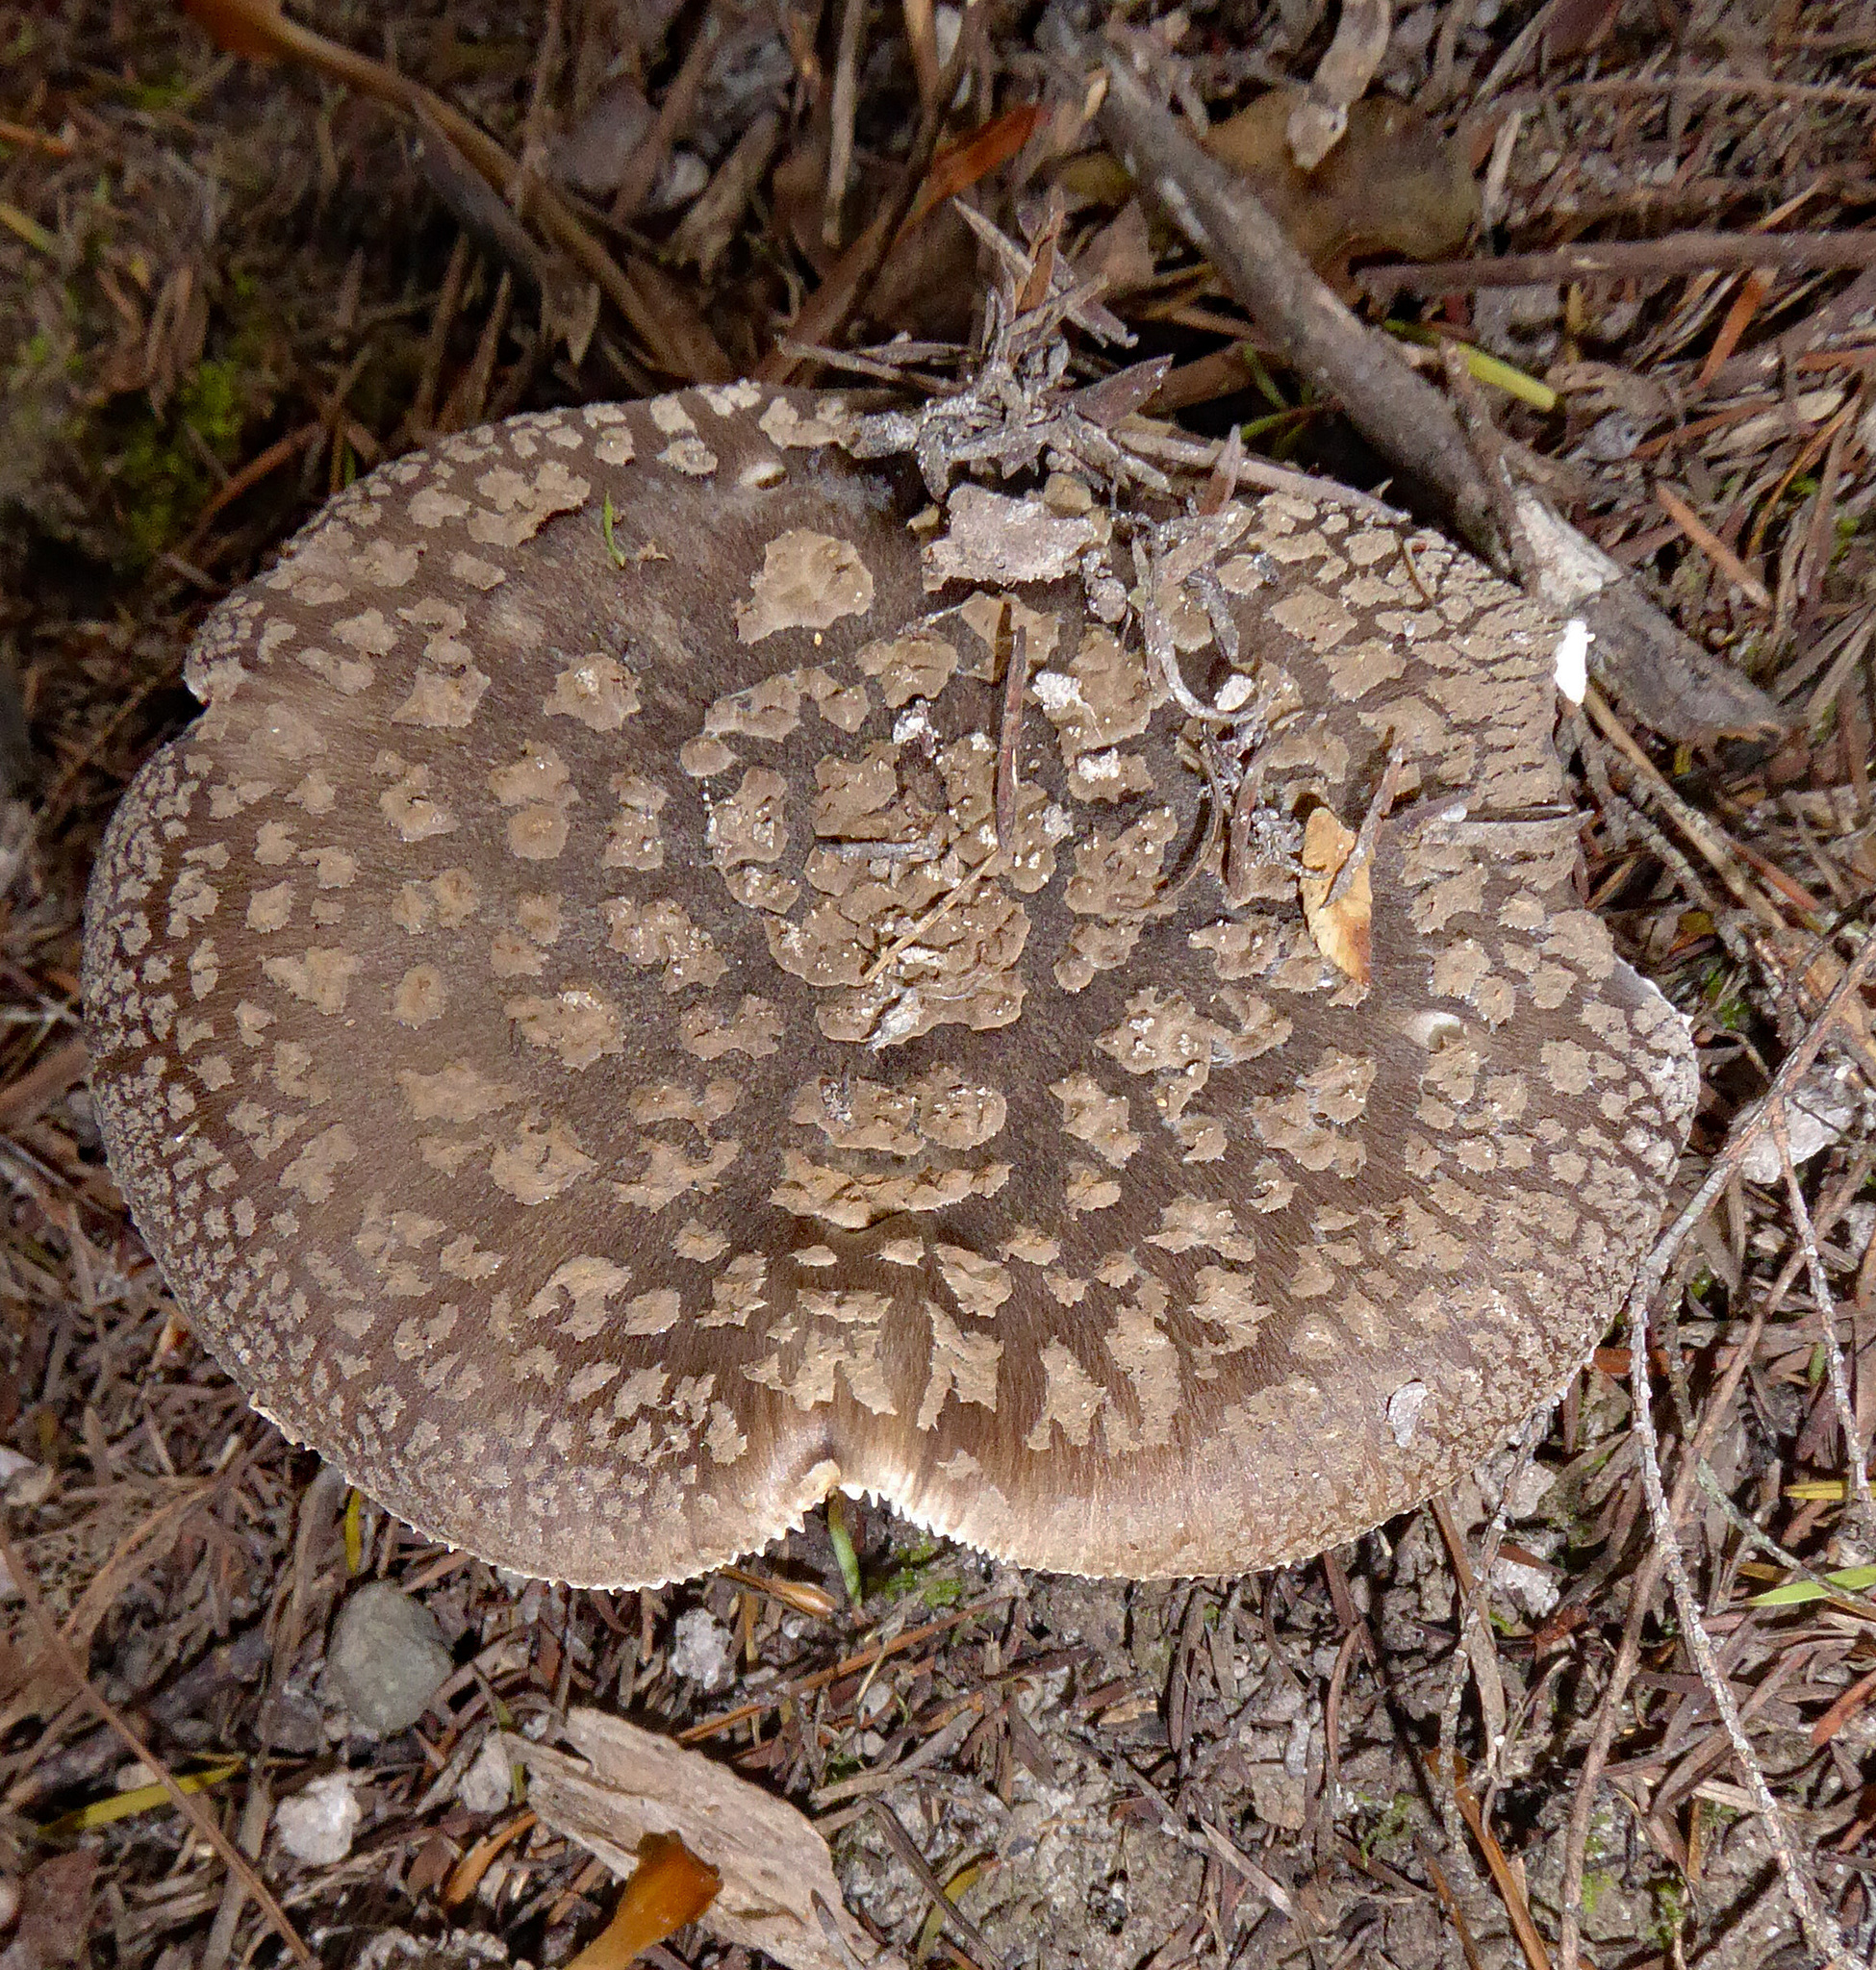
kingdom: Fungi
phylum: Basidiomycota
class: Agaricomycetes
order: Agaricales
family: Amanitaceae
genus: Amanita
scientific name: Amanita nothofagi
